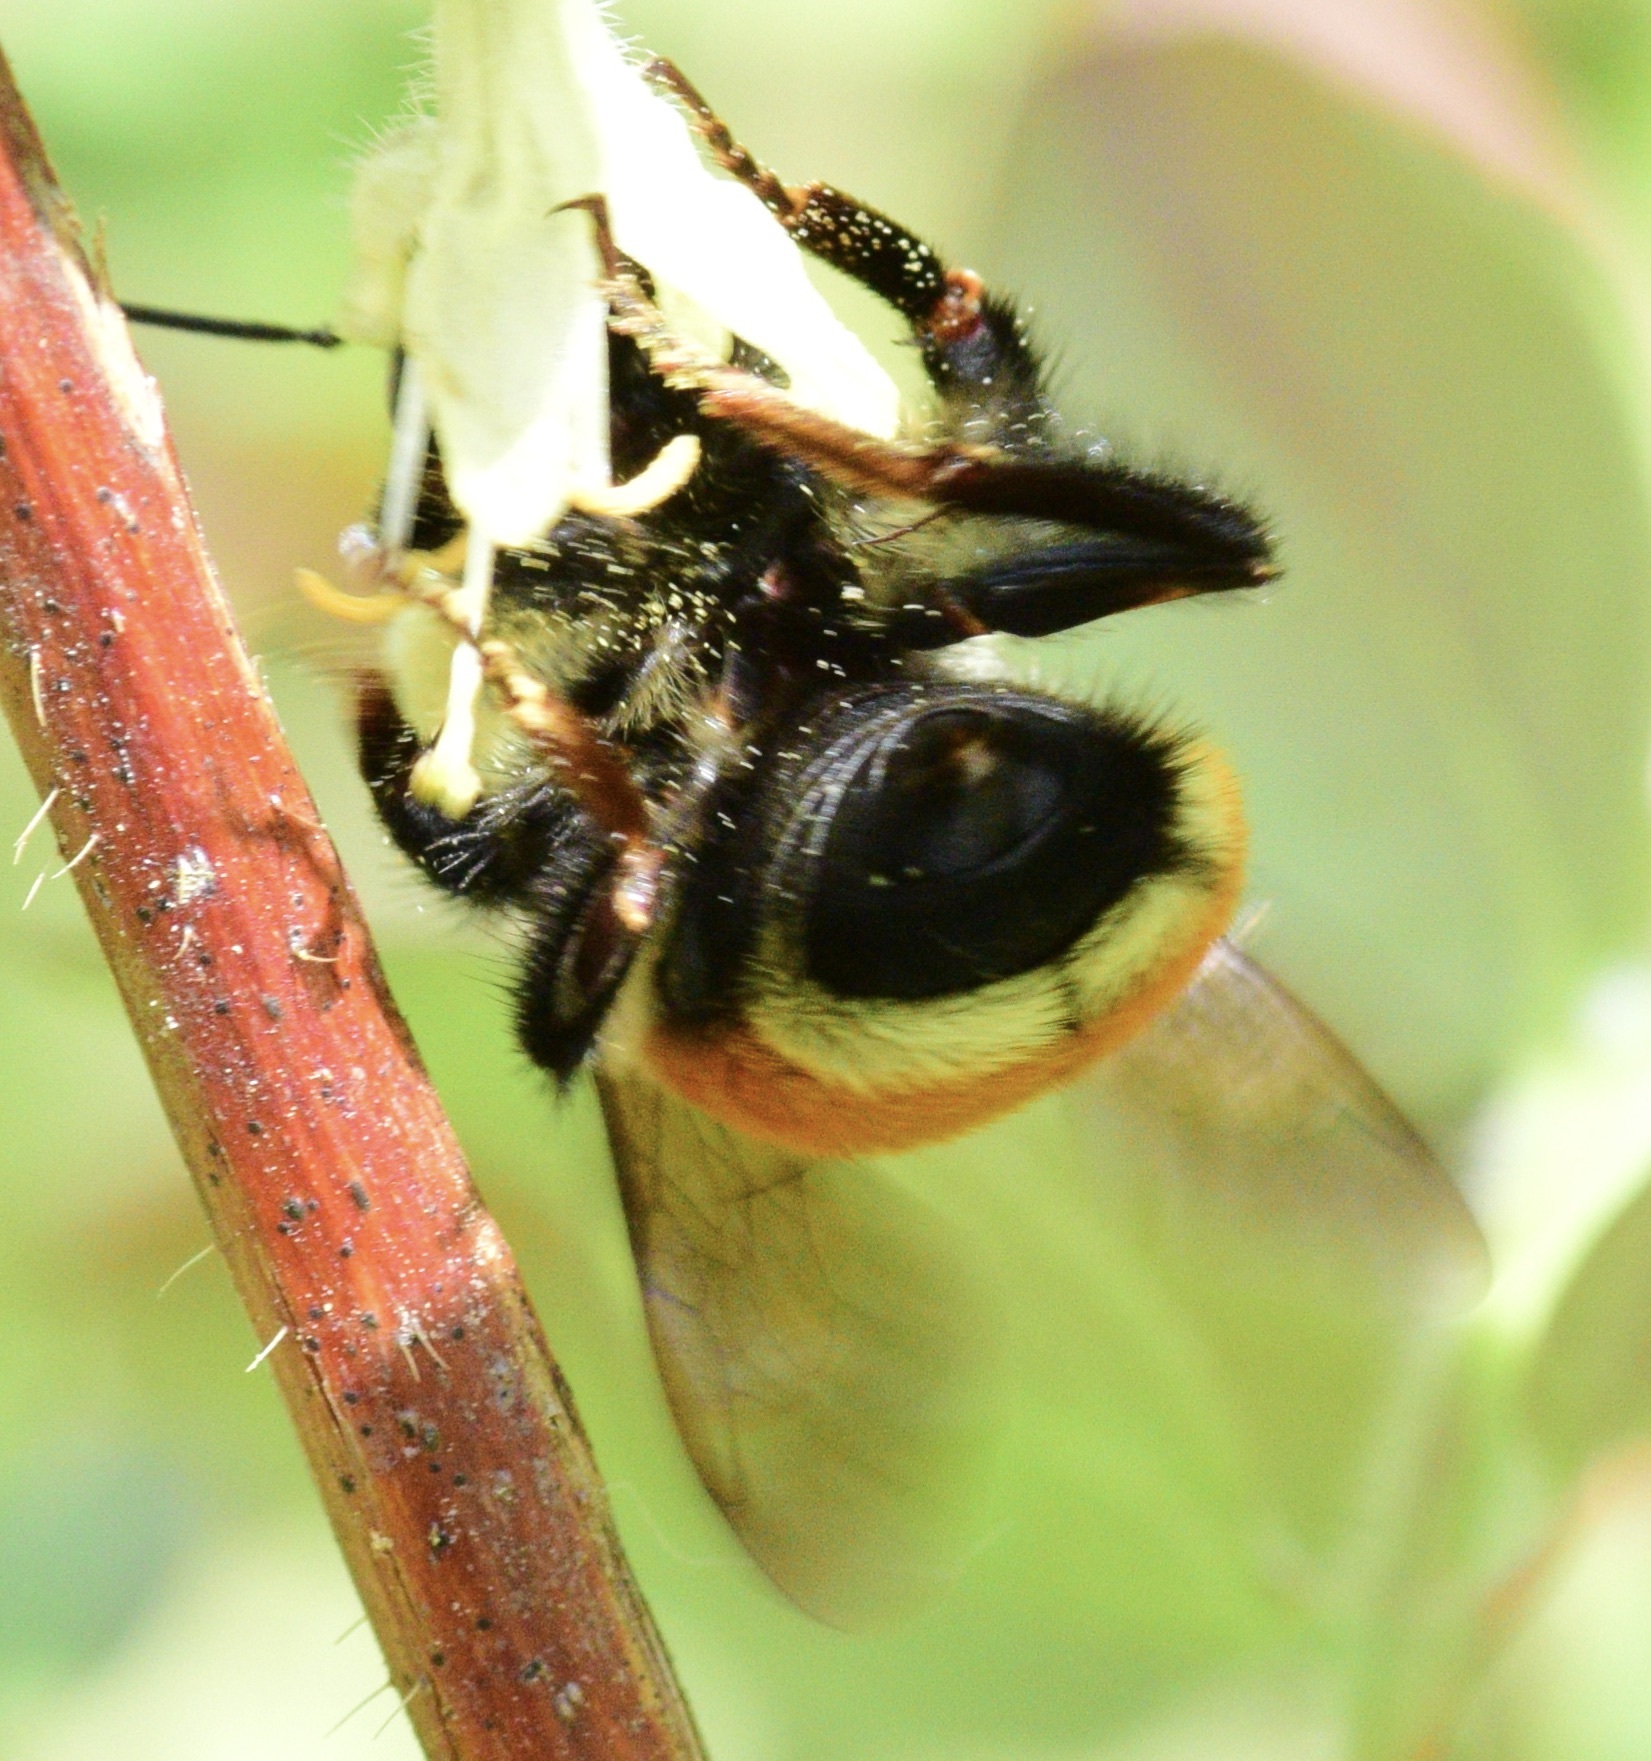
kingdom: Animalia
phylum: Arthropoda
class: Insecta
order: Hymenoptera
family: Apidae
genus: Bombus
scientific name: Bombus ternarius
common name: Tri-colored bumble bee
